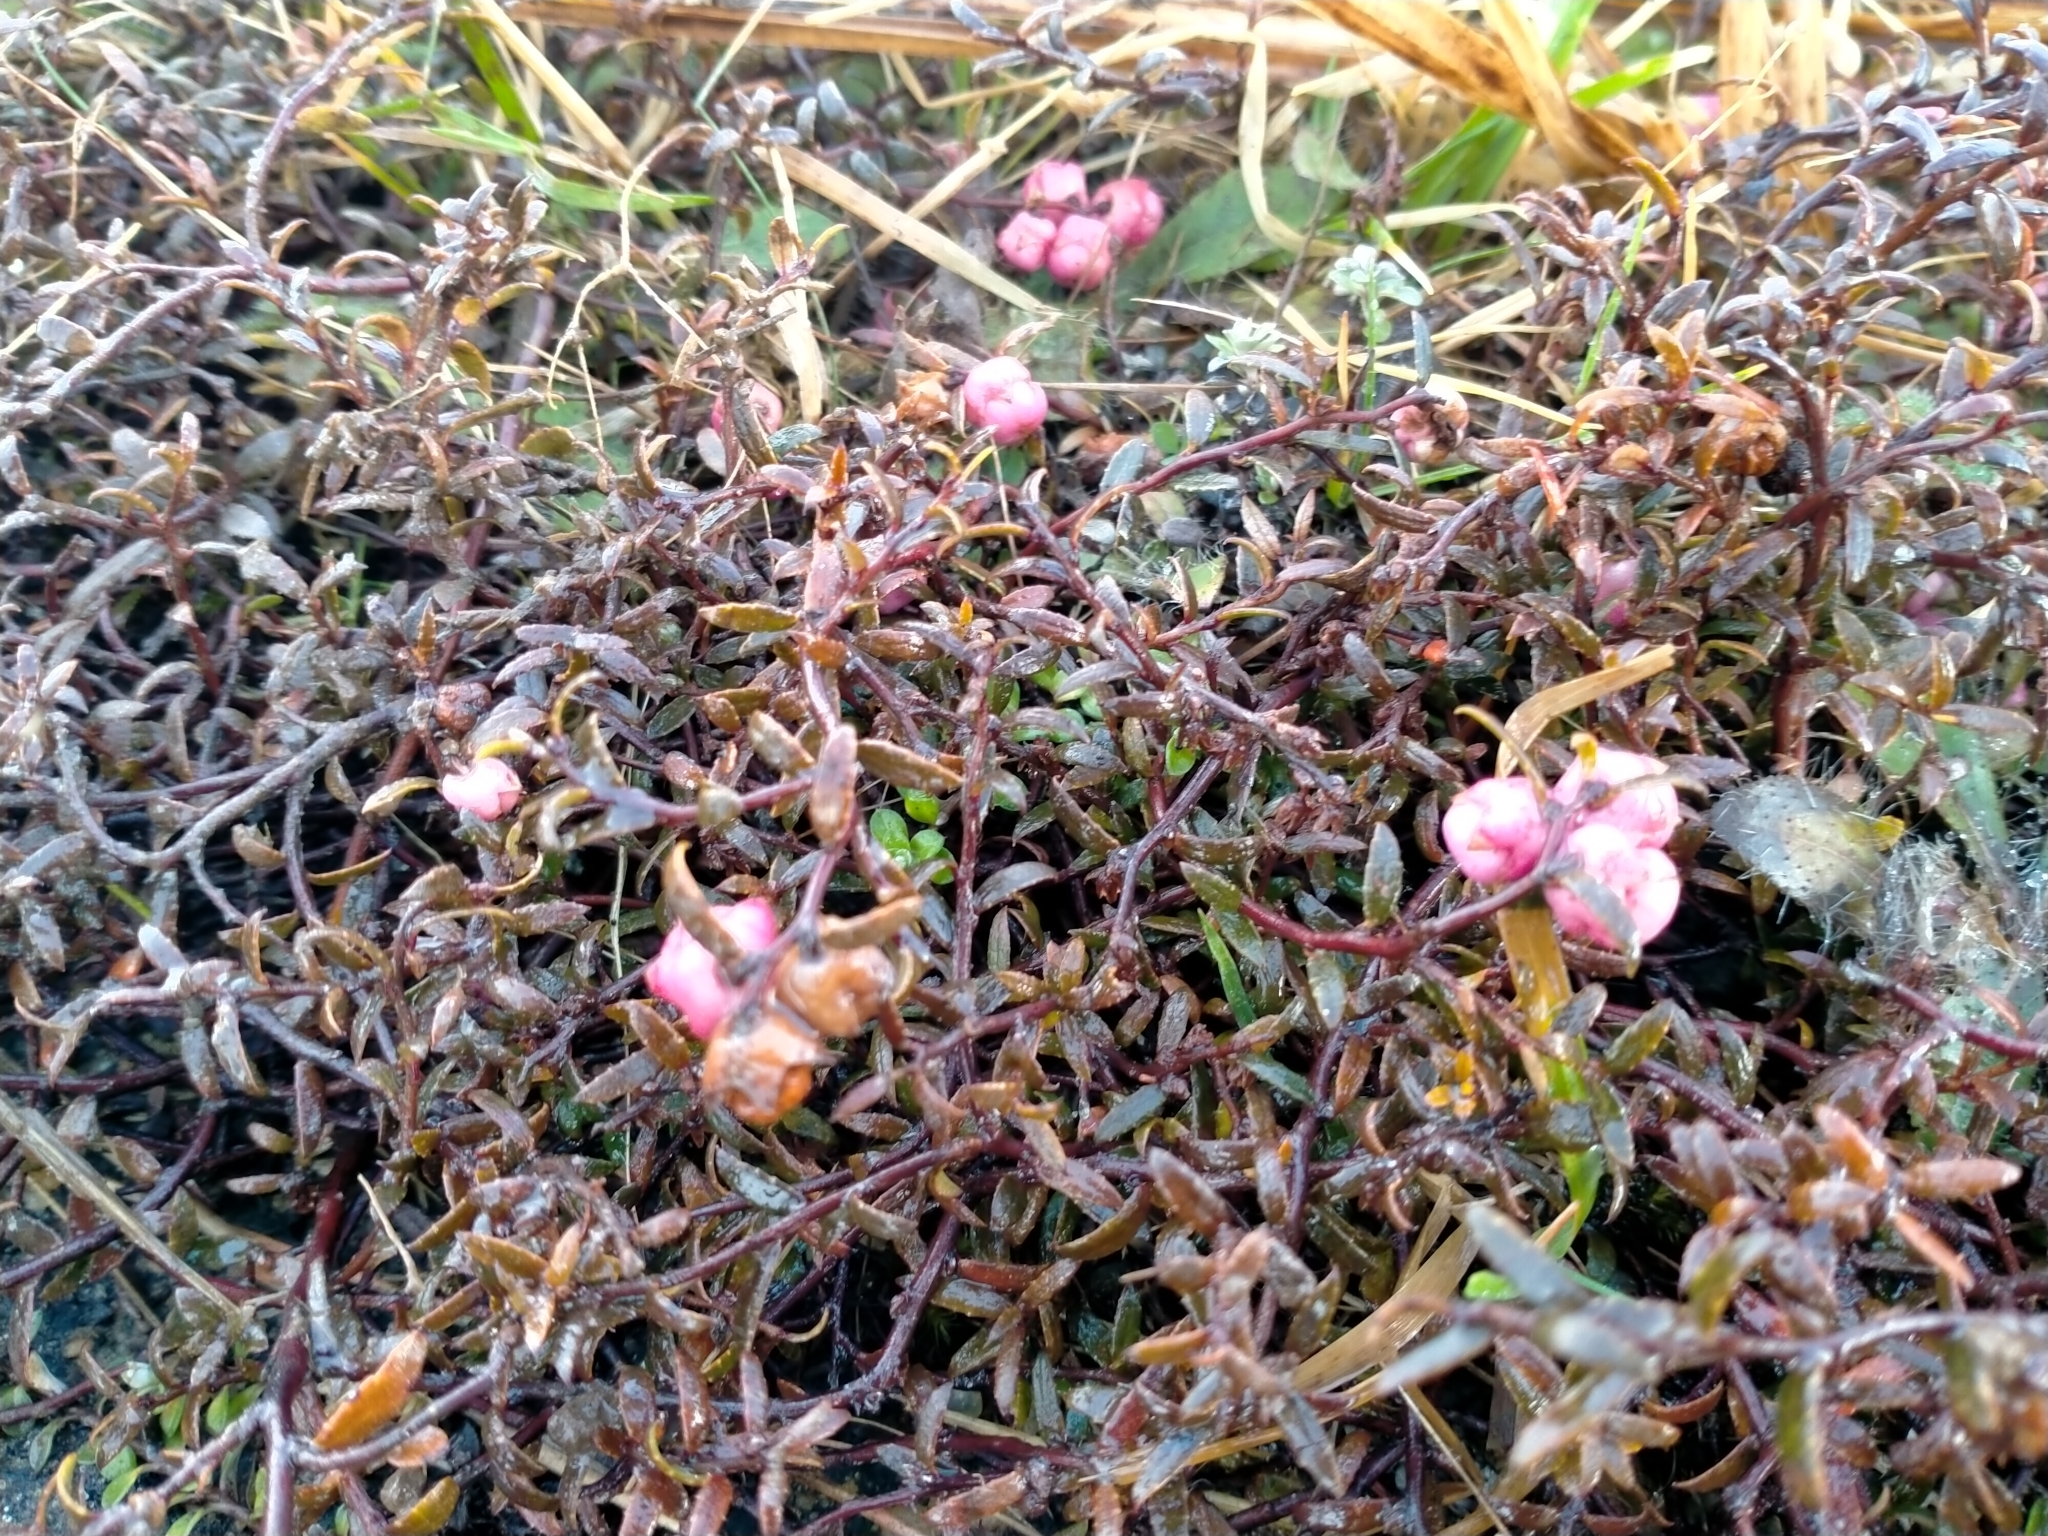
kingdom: Plantae
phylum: Tracheophyta
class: Magnoliopsida
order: Ericales
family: Ericaceae
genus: Gaultheria
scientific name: Gaultheria macrostigma
